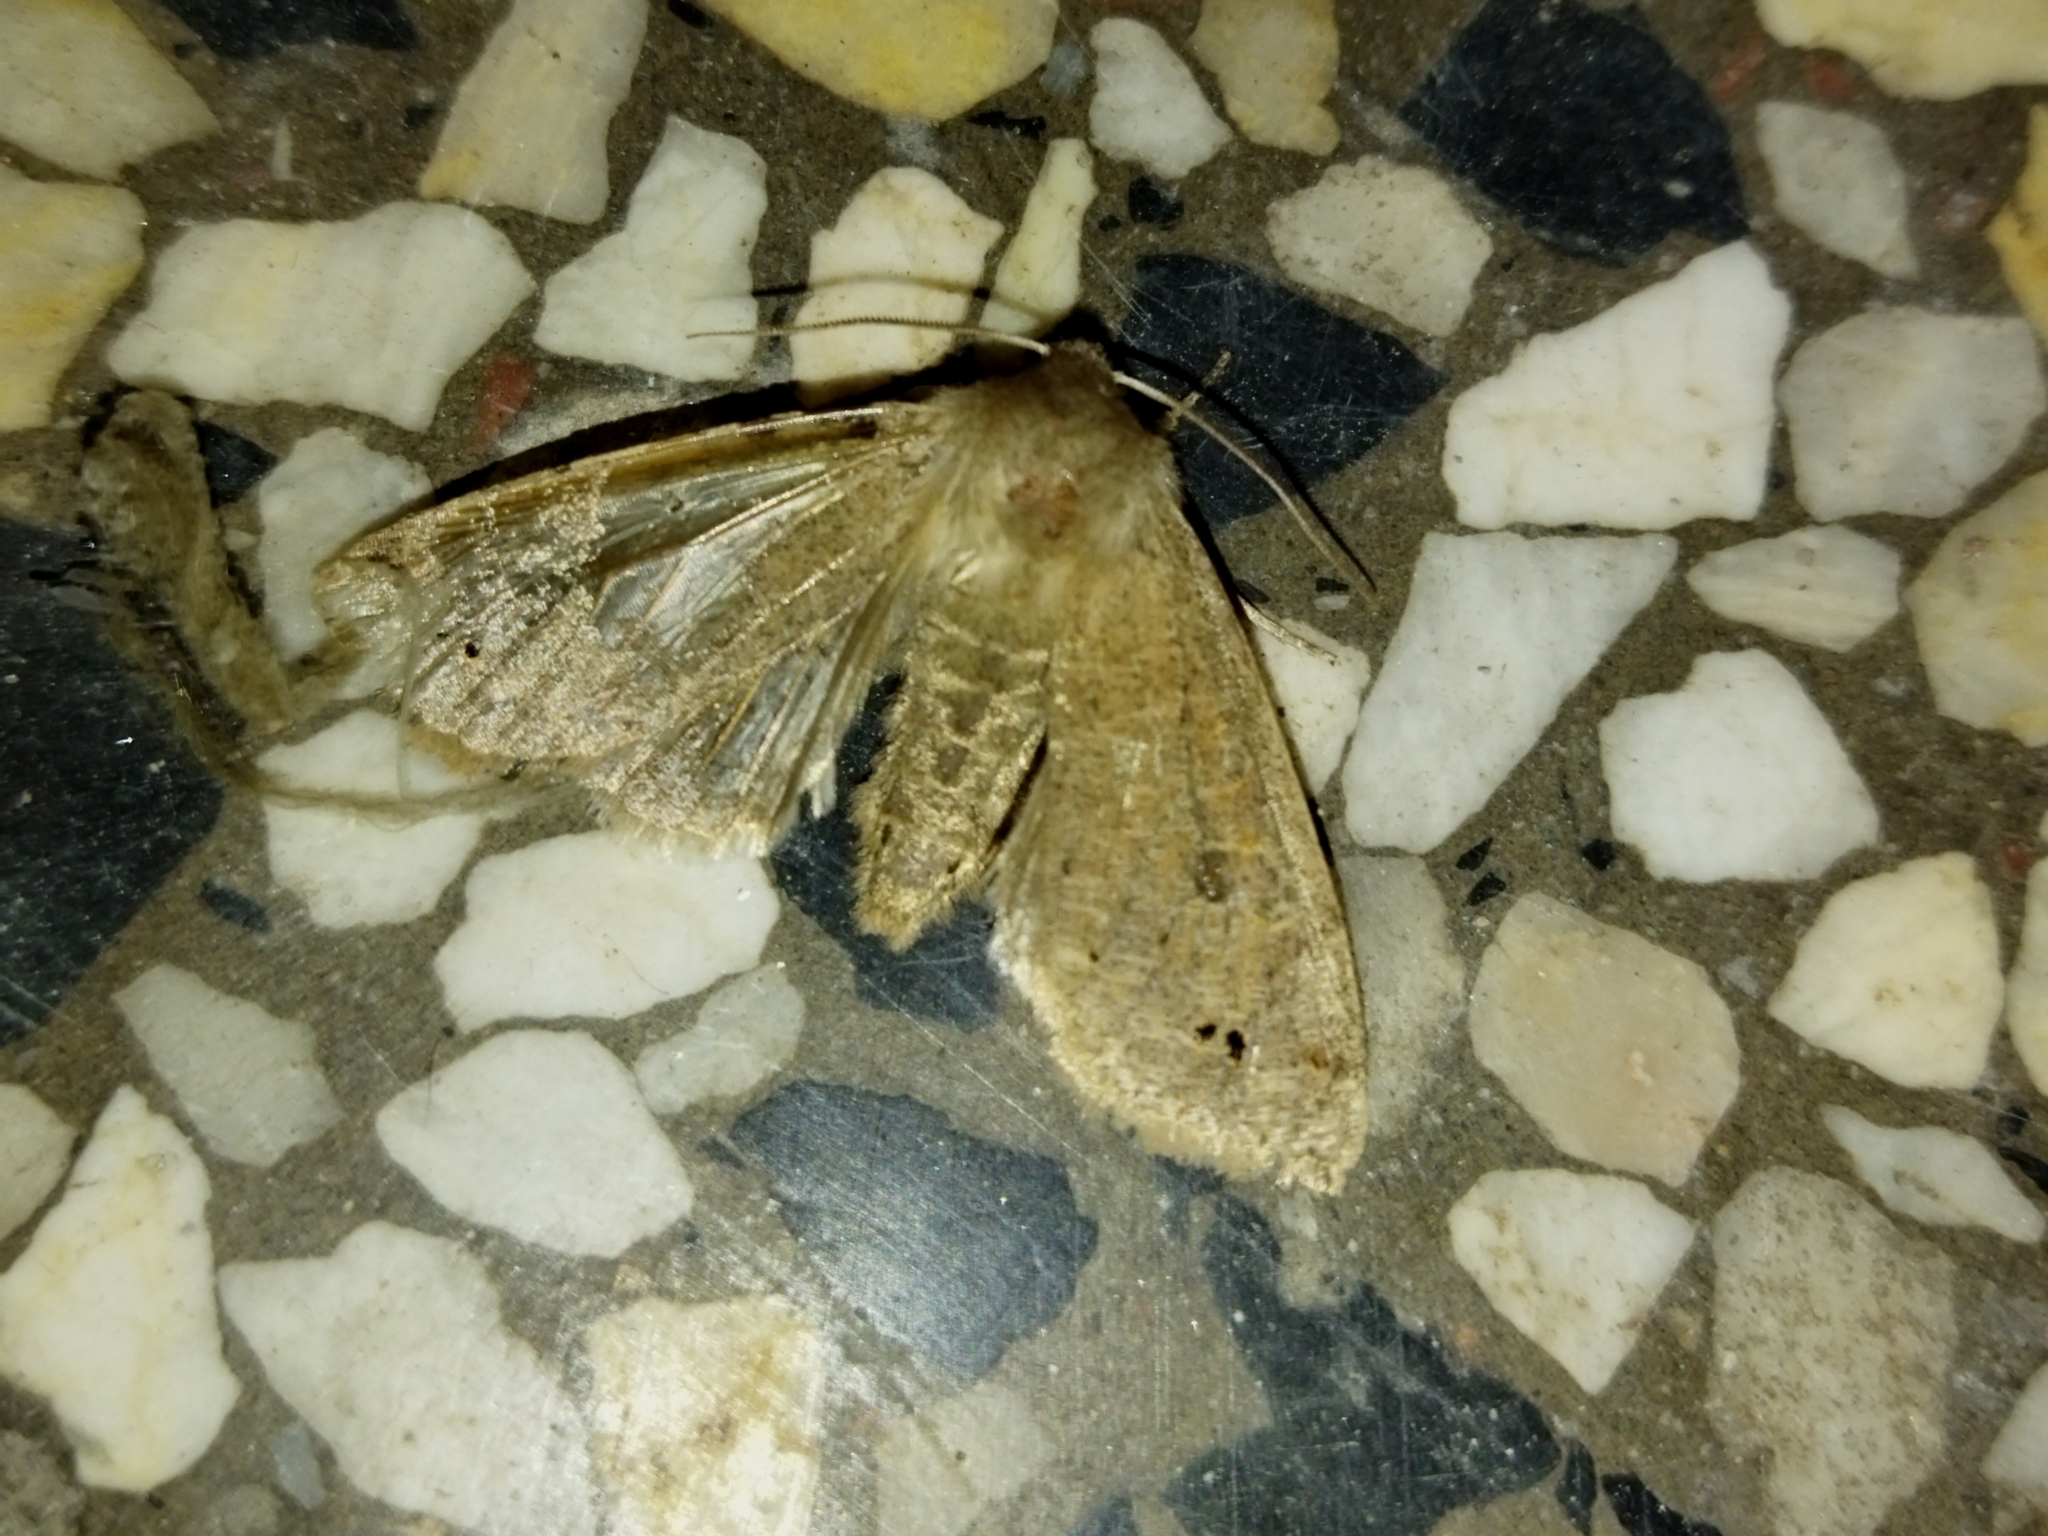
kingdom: Animalia
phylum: Arthropoda
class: Insecta
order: Lepidoptera
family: Noctuidae
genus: Anorthoa
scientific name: Anorthoa munda
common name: Twin-spotted quaker
